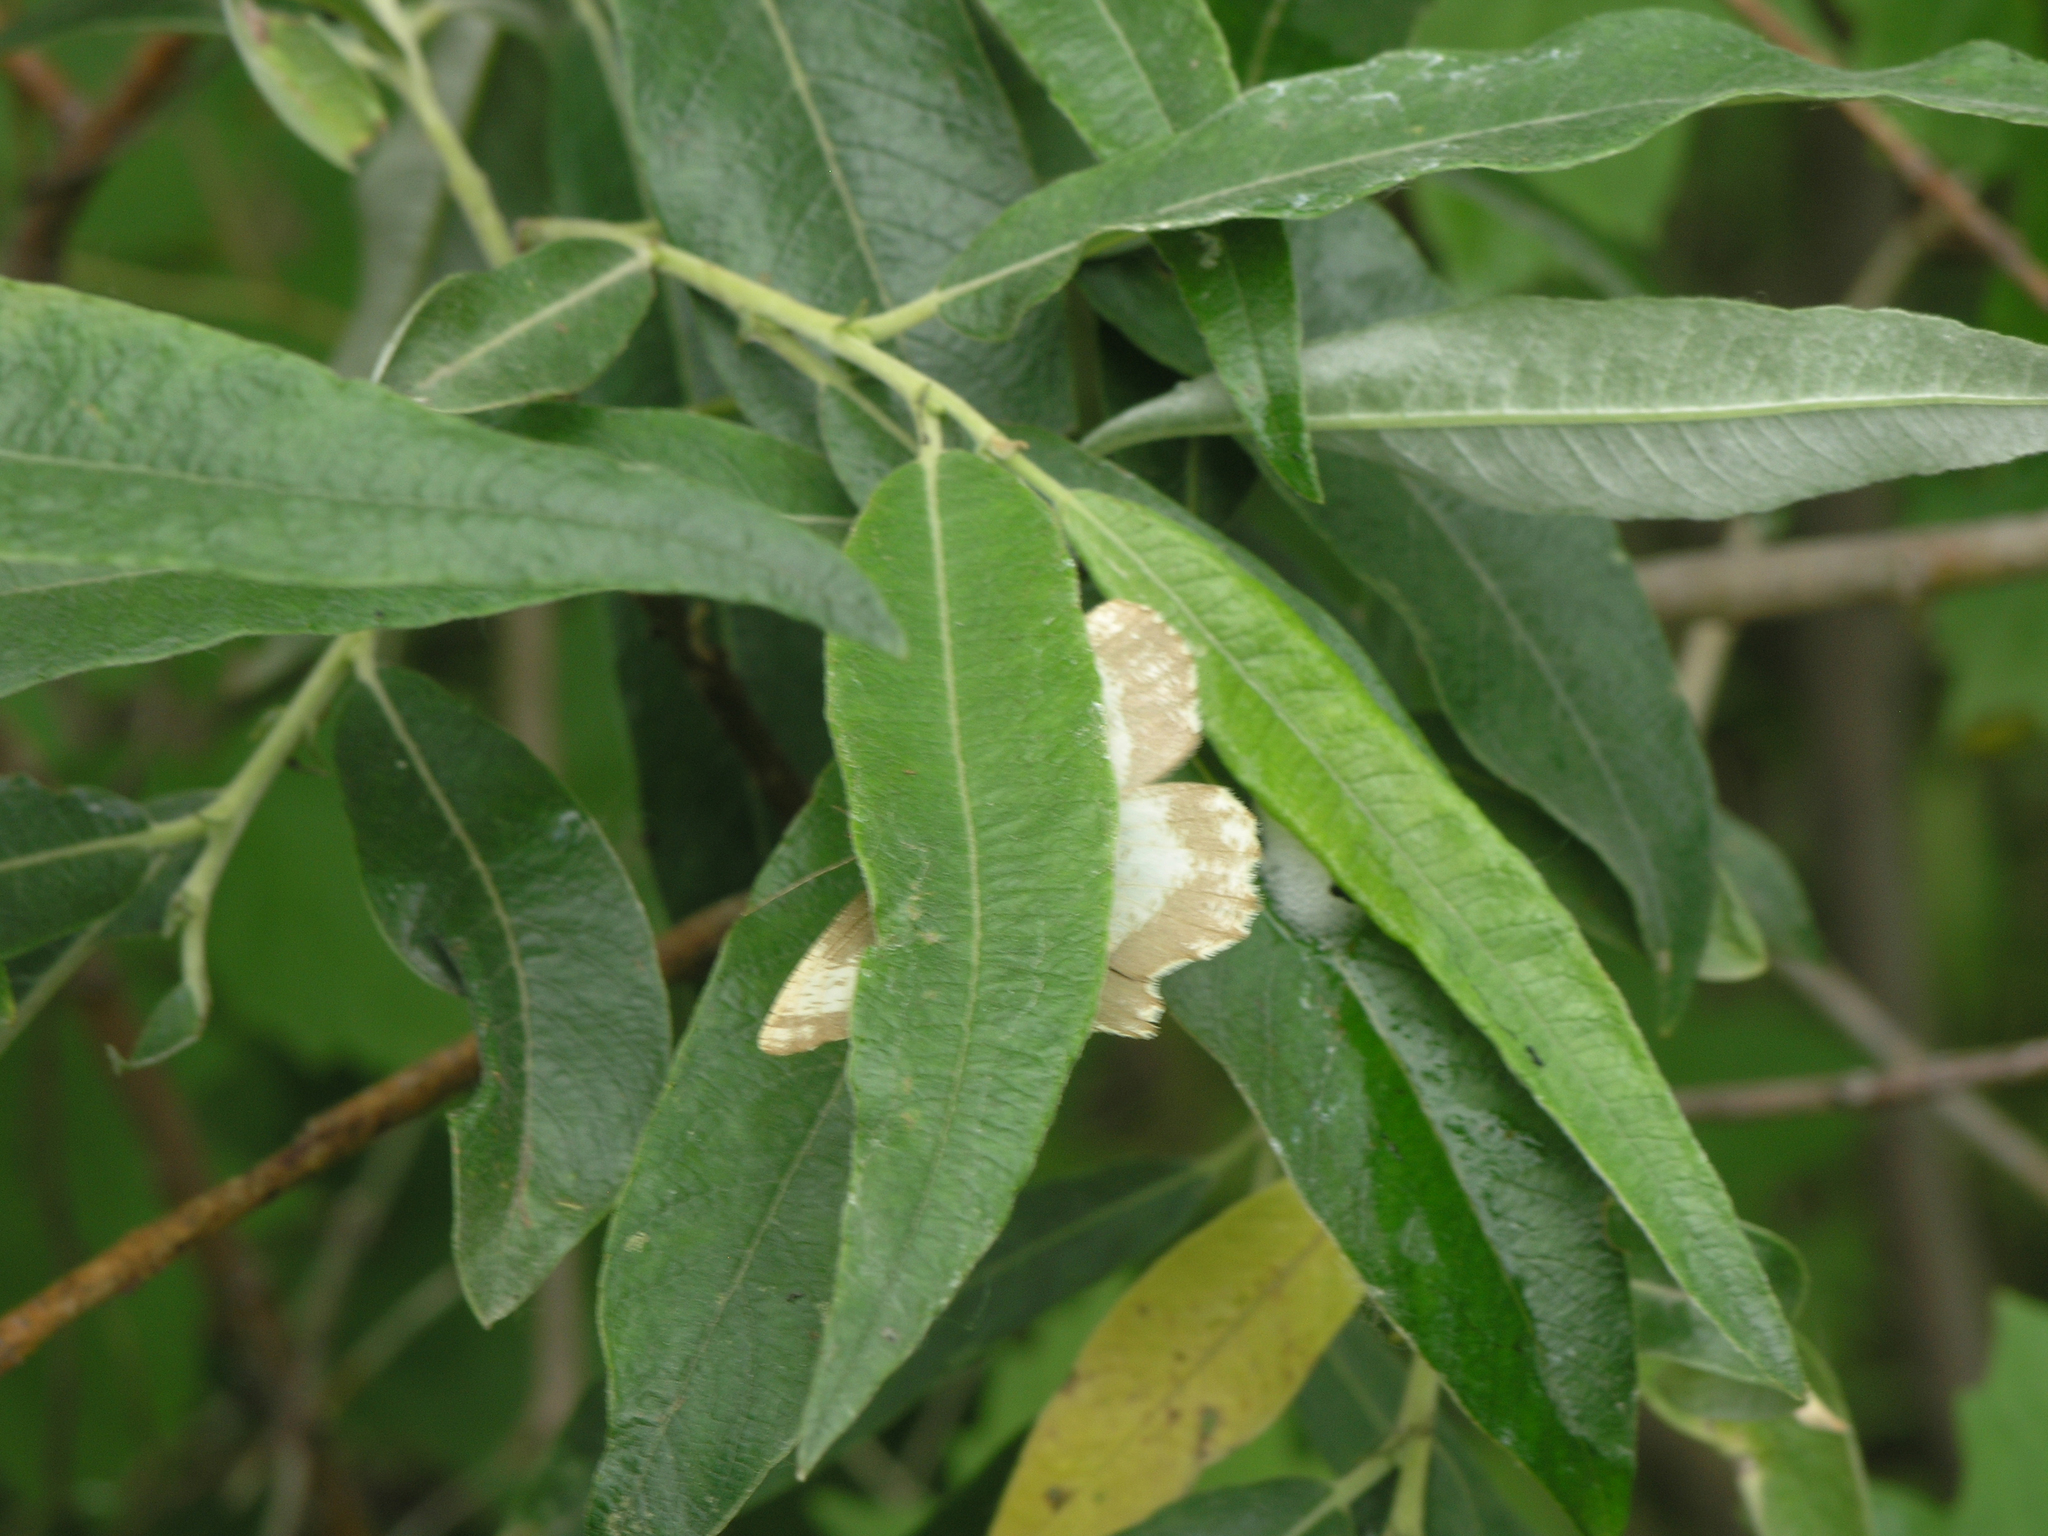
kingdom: Animalia
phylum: Arthropoda
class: Insecta
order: Lepidoptera
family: Geometridae
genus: Angerona
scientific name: Angerona prunaria
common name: Orange moth
